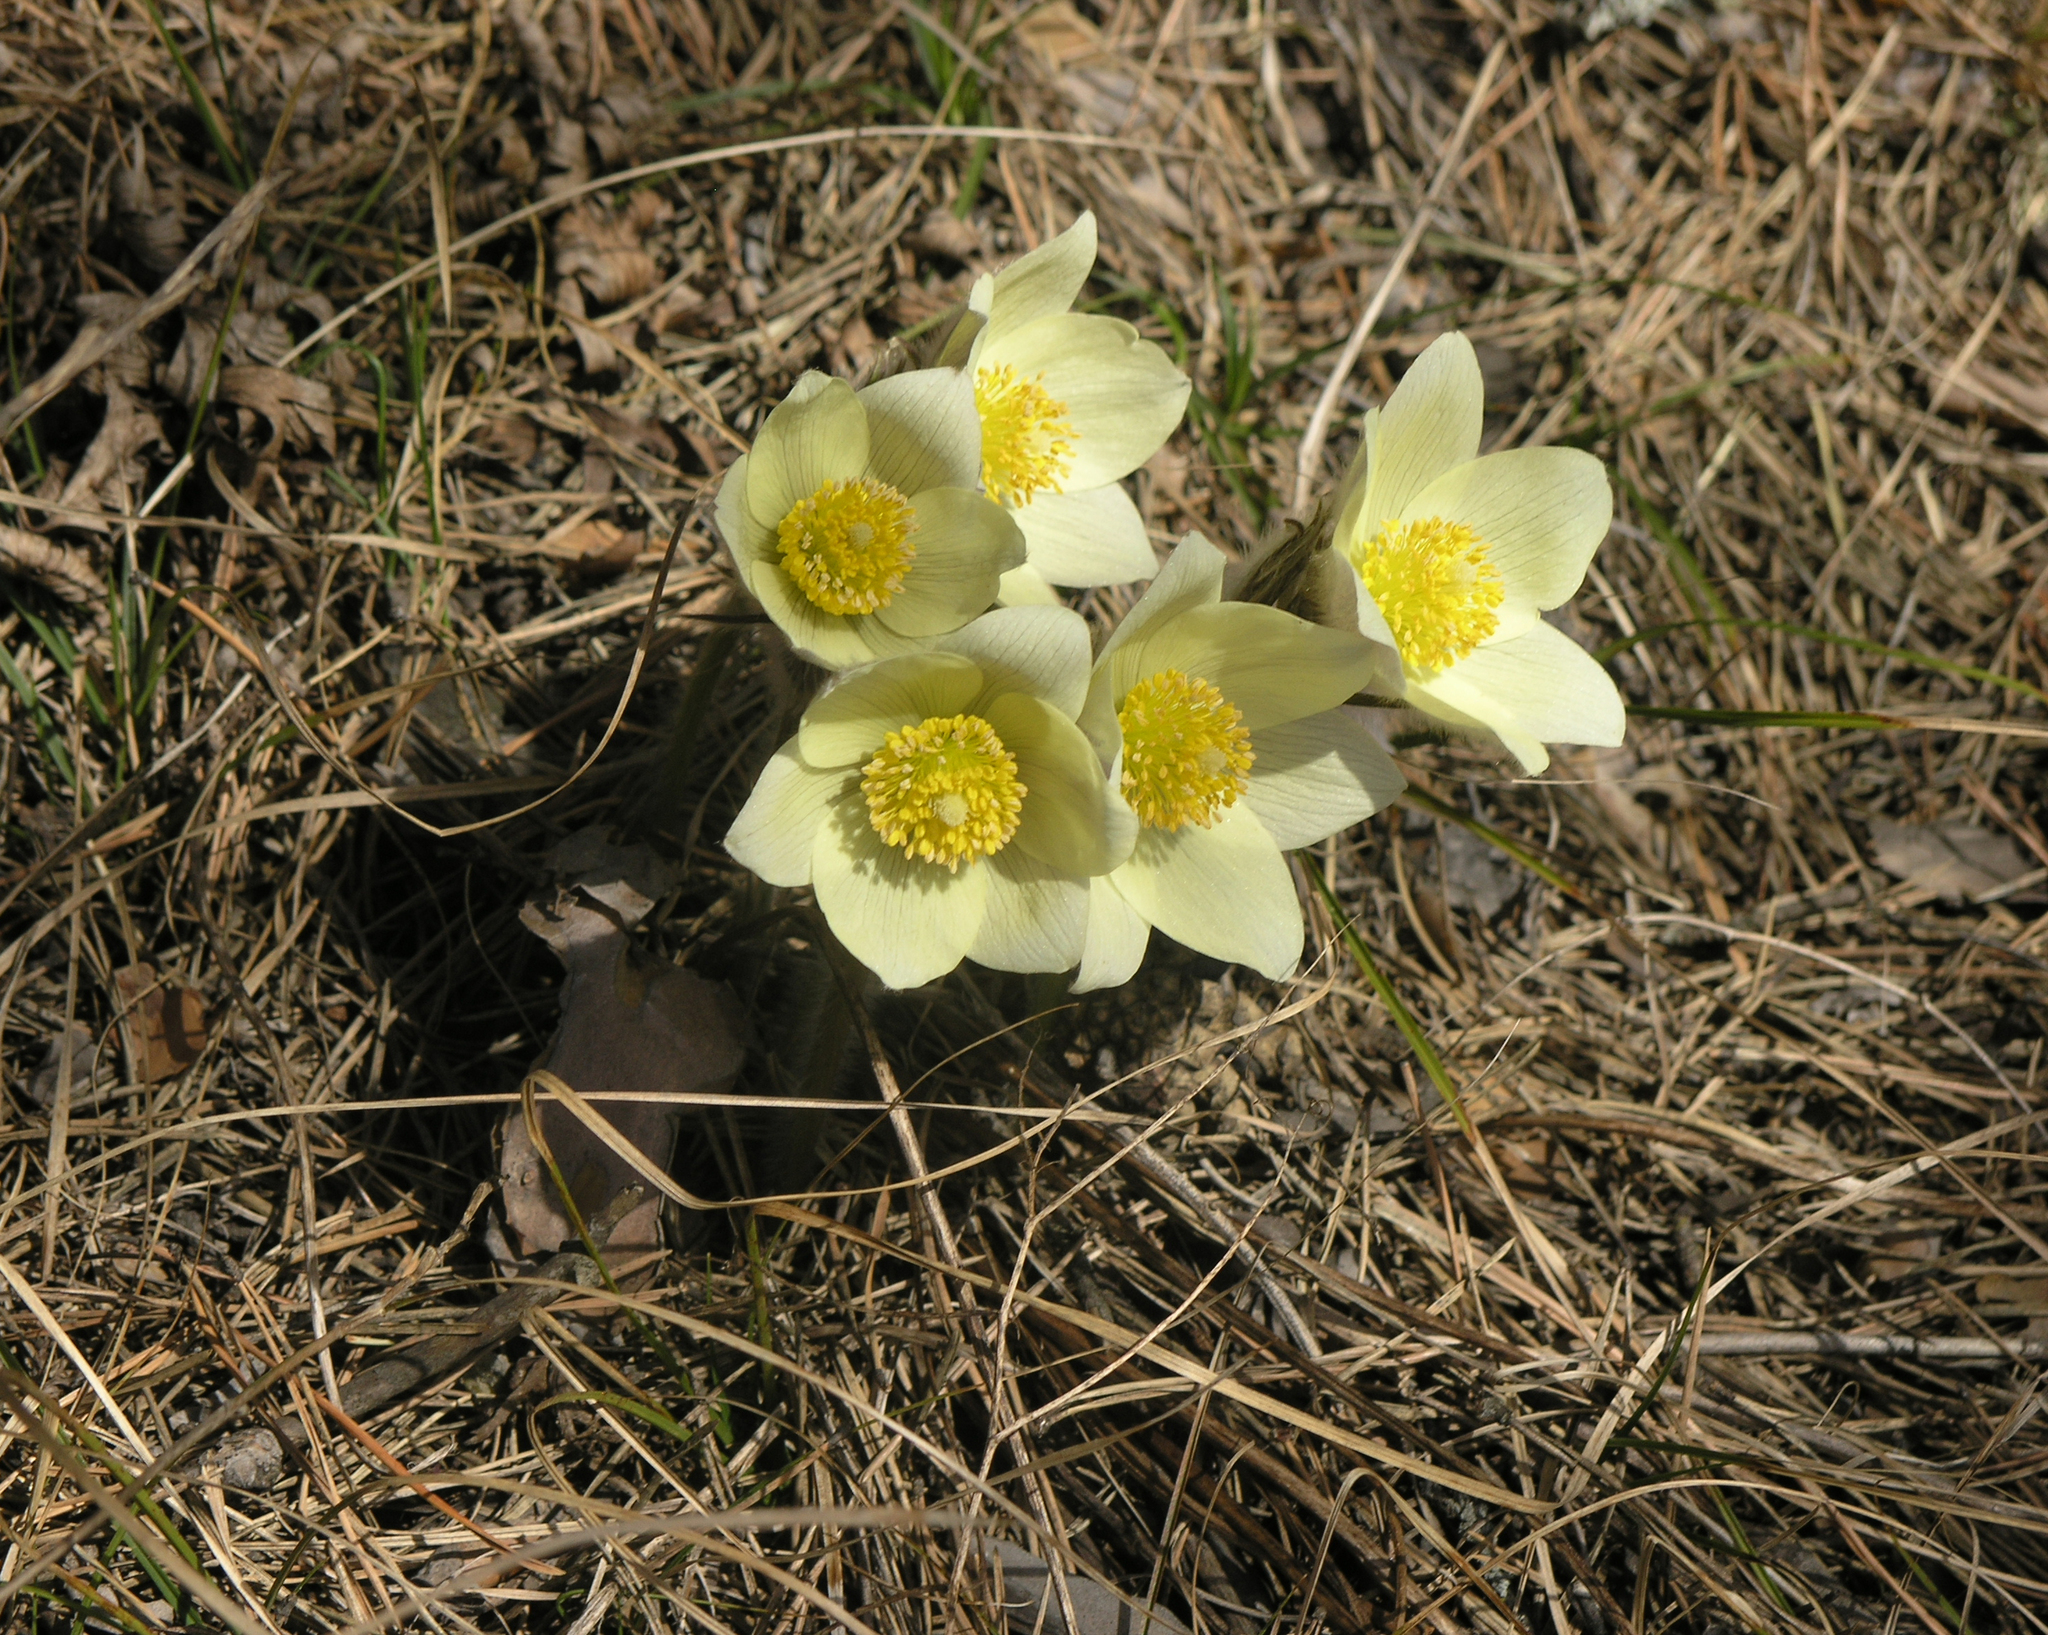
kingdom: Plantae
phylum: Tracheophyta
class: Magnoliopsida
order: Ranunculales
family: Ranunculaceae
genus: Pulsatilla
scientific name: Pulsatilla patens
